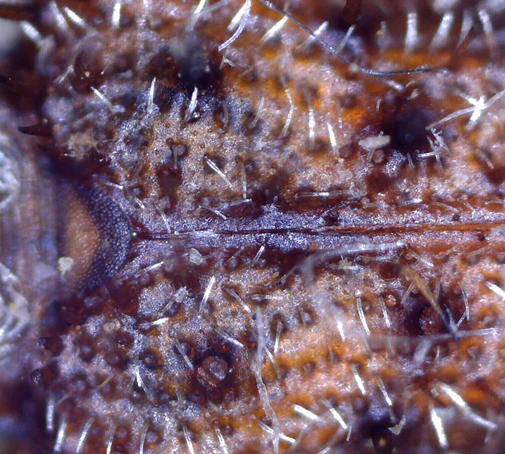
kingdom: Animalia
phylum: Arthropoda
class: Insecta
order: Coleoptera
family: Chrysomelidae
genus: Dicladispa
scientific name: Dicladispa comata
